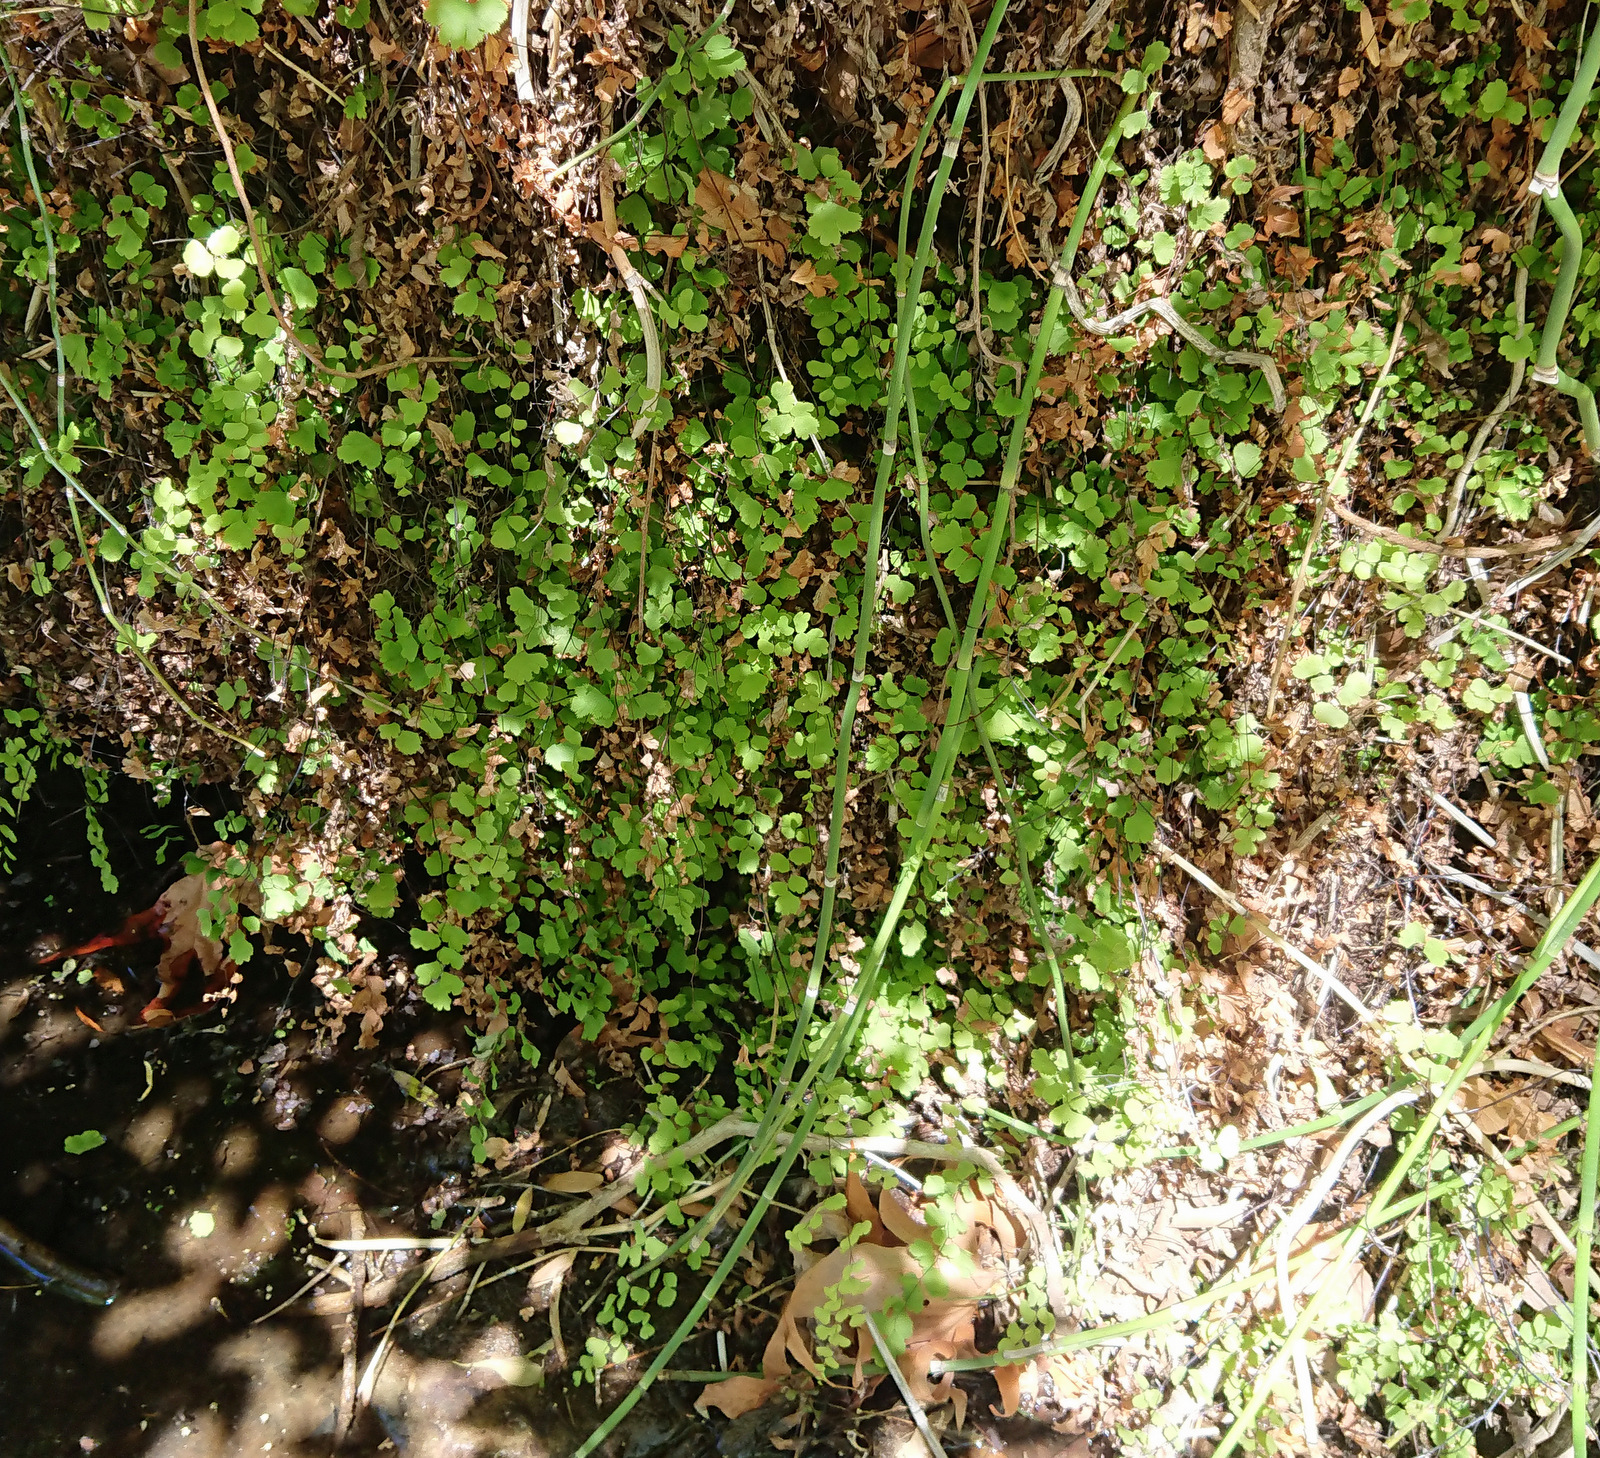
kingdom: Plantae
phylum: Tracheophyta
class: Polypodiopsida
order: Polypodiales
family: Pteridaceae
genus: Adiantum
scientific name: Adiantum capillus-veneris
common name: Maidenhair fern
